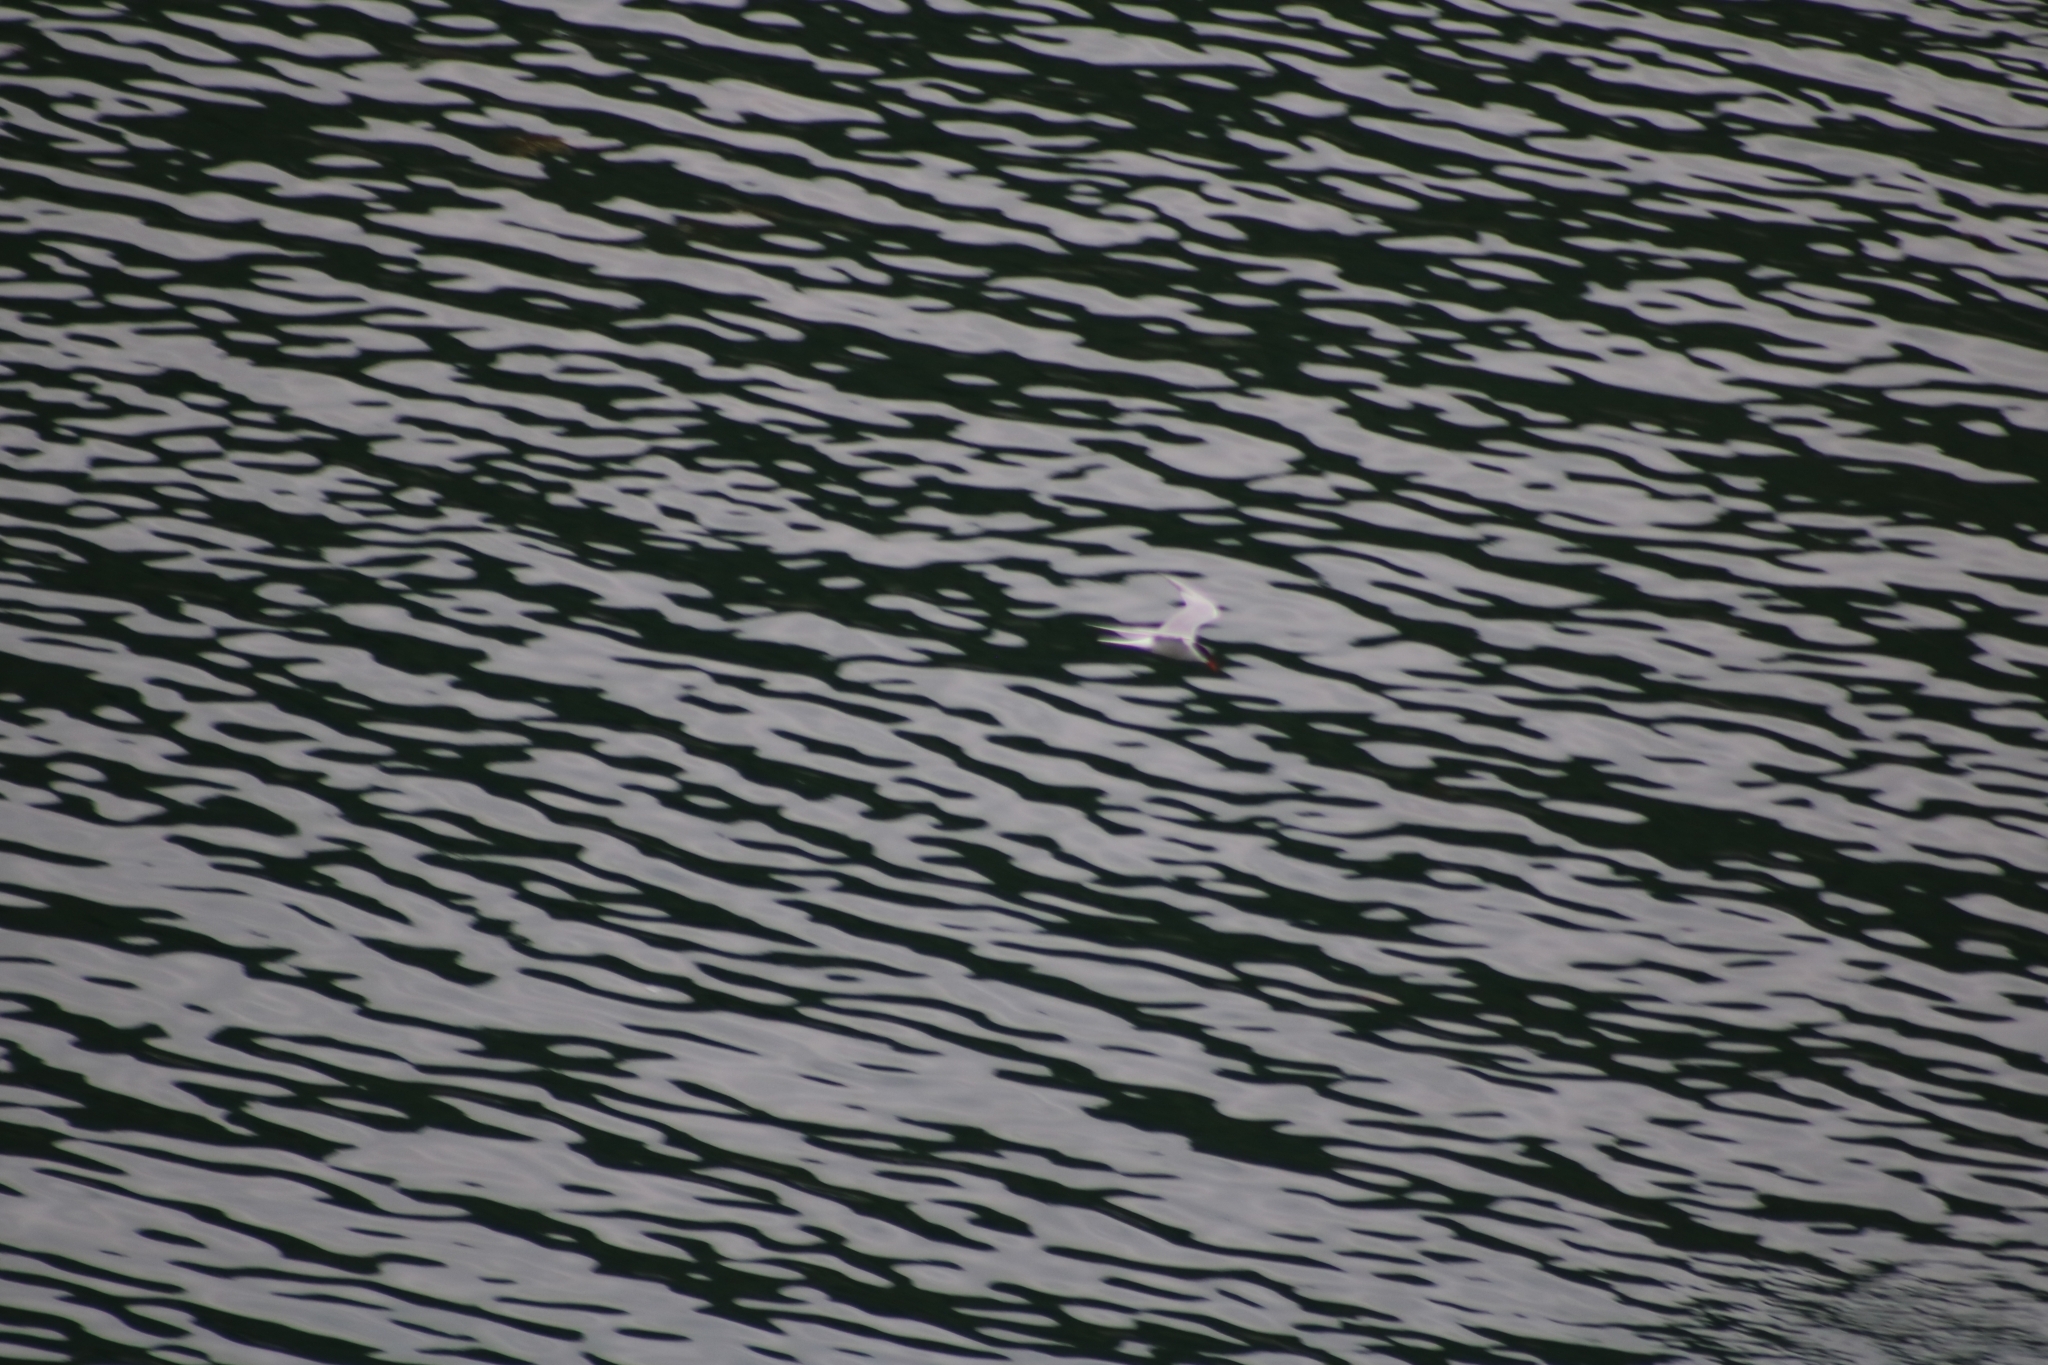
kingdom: Animalia
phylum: Chordata
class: Aves
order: Charadriiformes
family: Laridae
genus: Sterna
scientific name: Sterna hirundo
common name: Common tern
